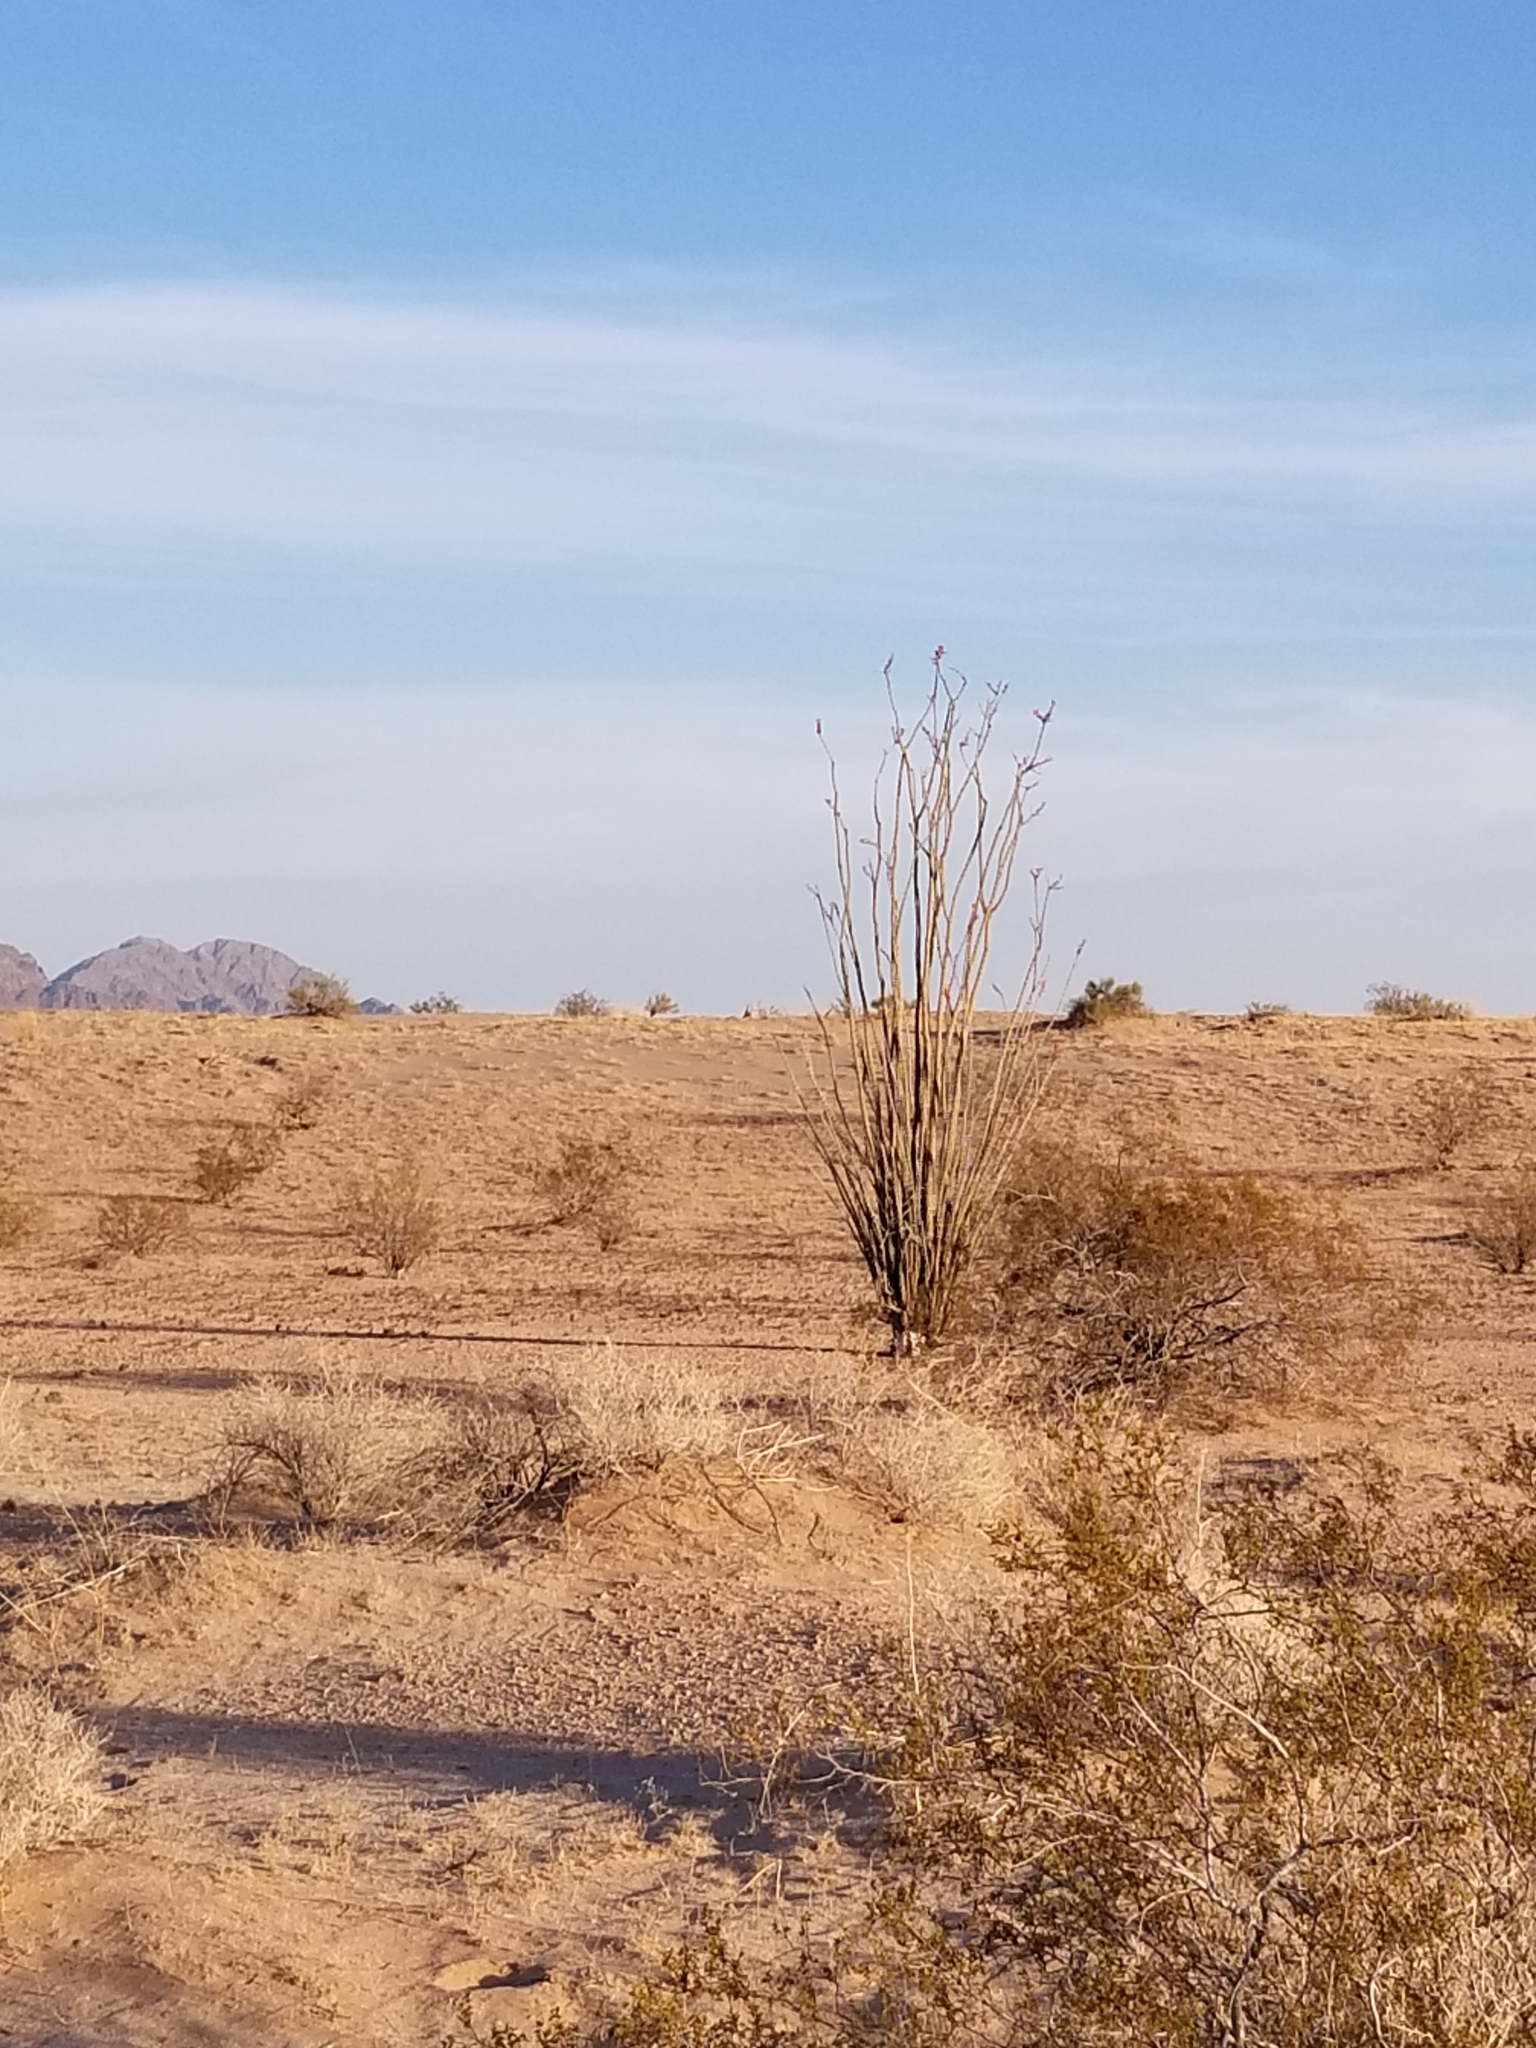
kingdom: Plantae
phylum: Tracheophyta
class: Magnoliopsida
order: Ericales
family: Fouquieriaceae
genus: Fouquieria
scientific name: Fouquieria splendens
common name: Vine-cactus
